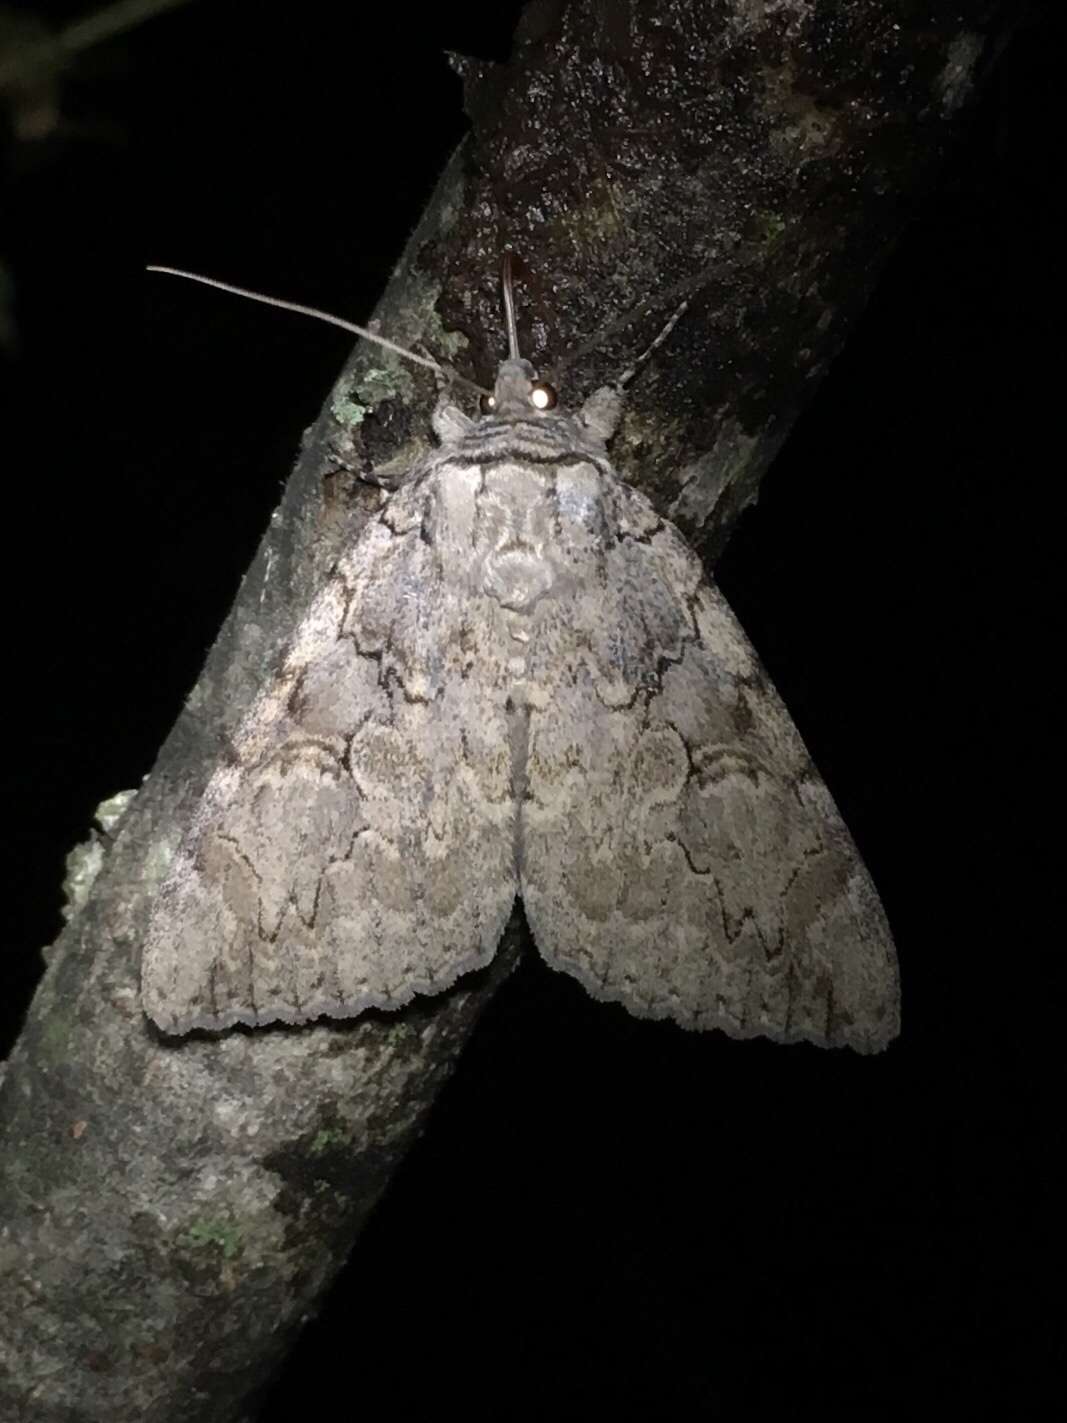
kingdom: Animalia
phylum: Arthropoda
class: Insecta
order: Lepidoptera
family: Erebidae
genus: Catocala
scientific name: Catocala amatrix
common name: Sweetheart underwing
